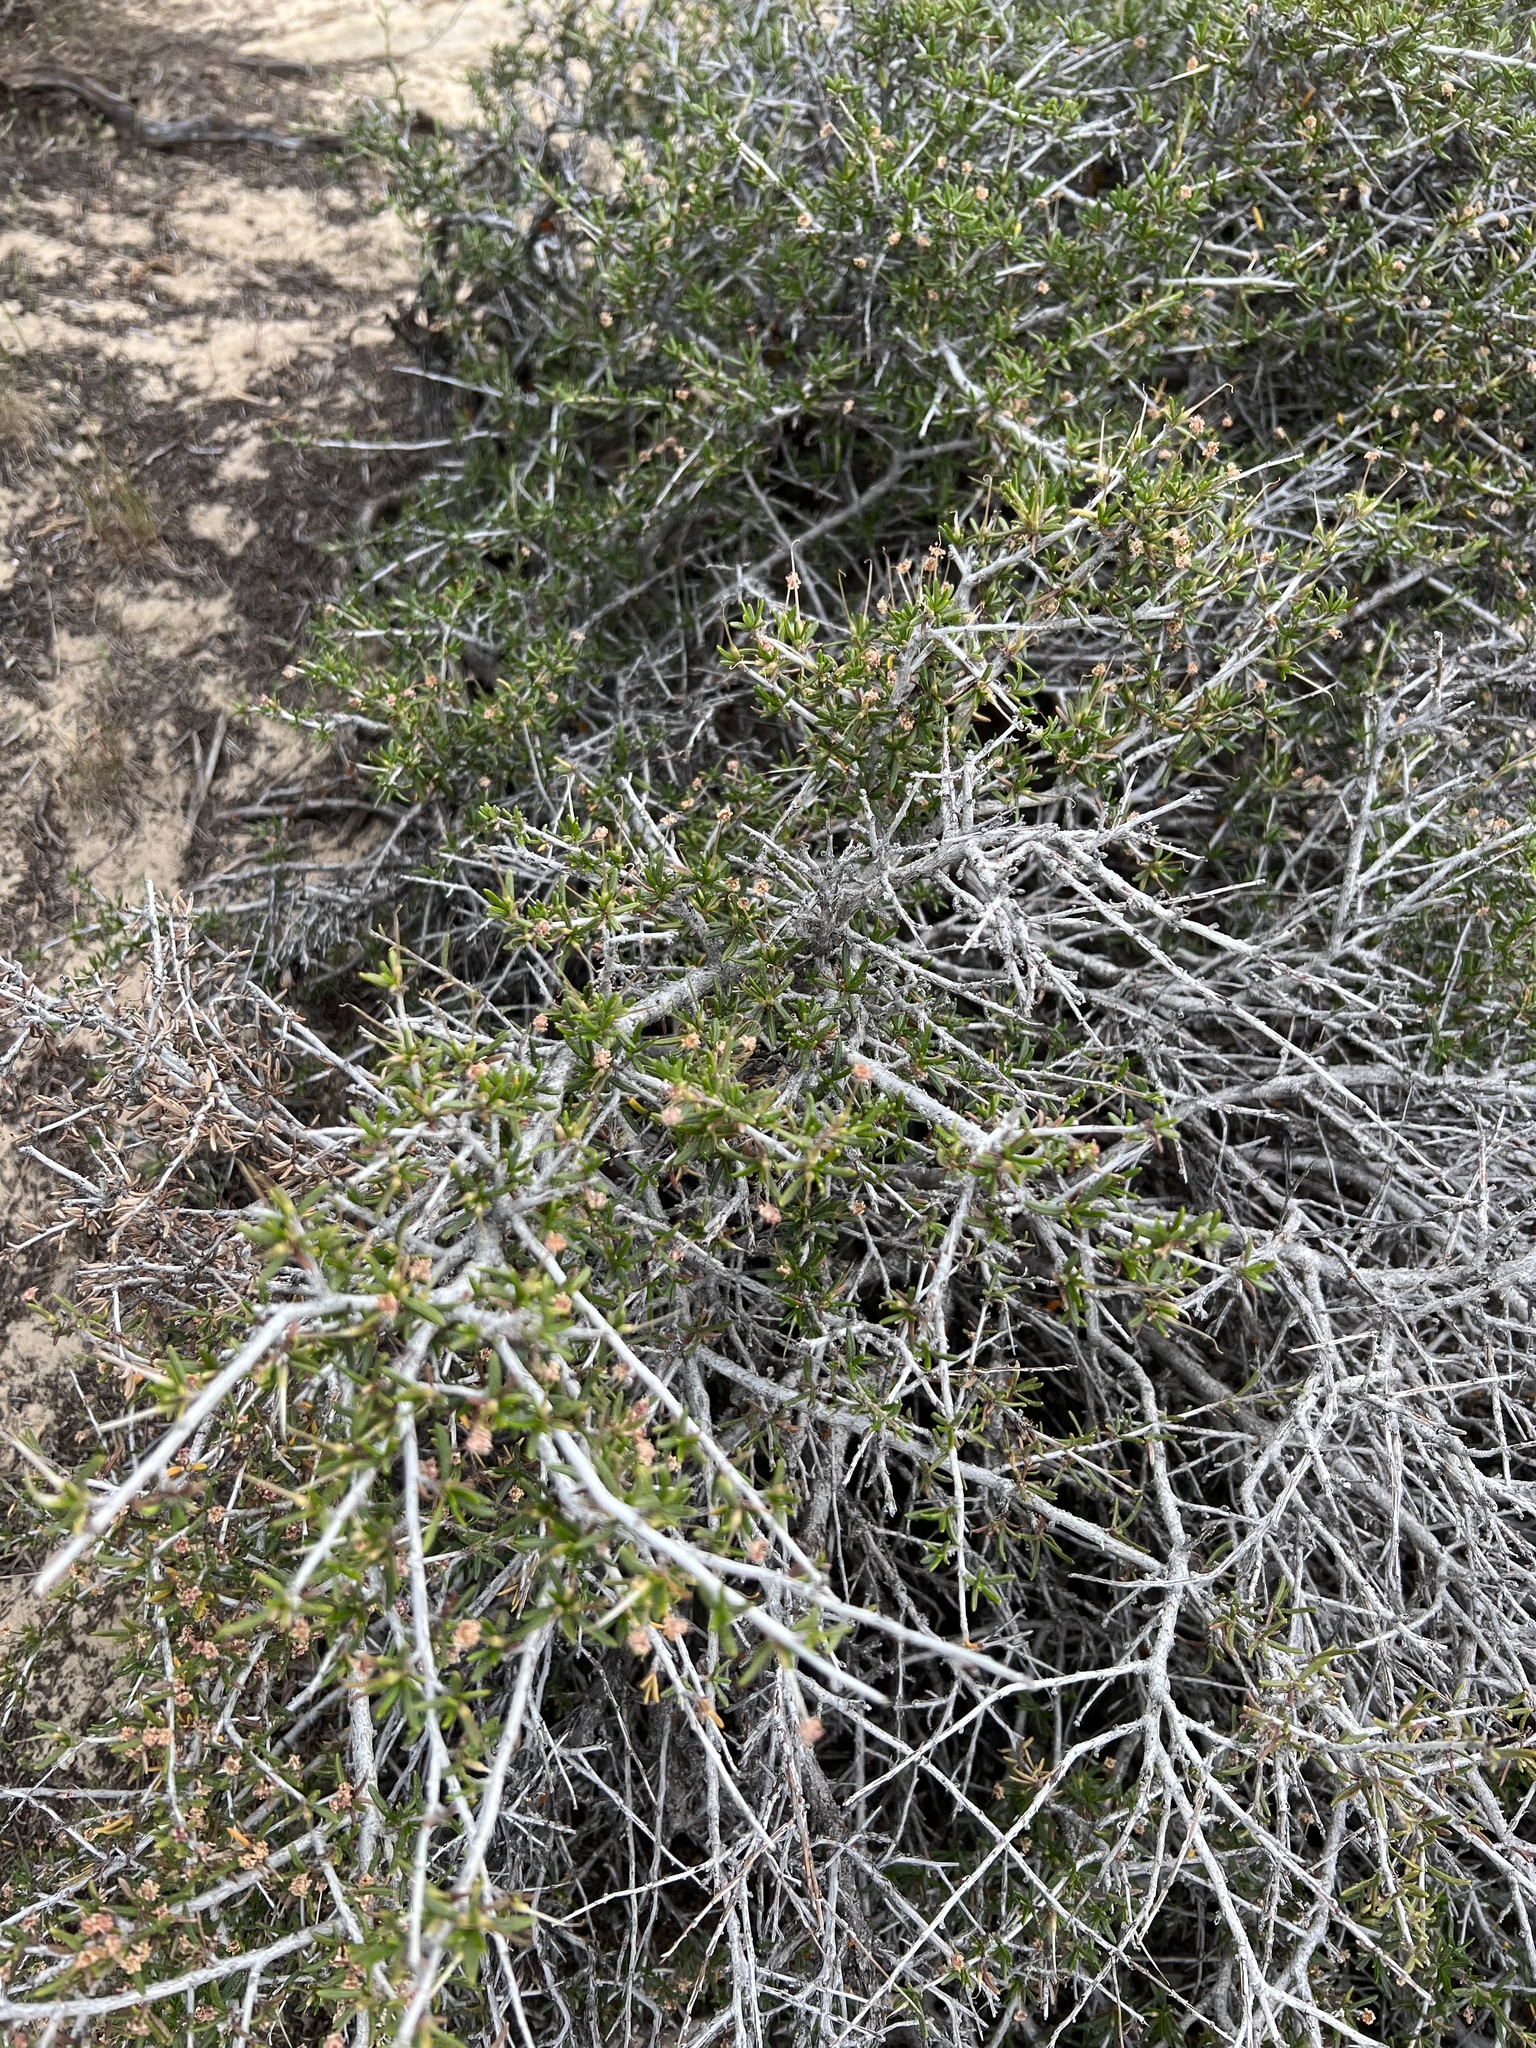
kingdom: Plantae
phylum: Tracheophyta
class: Magnoliopsida
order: Rosales
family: Rosaceae
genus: Cercocarpus
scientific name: Cercocarpus intricatus
